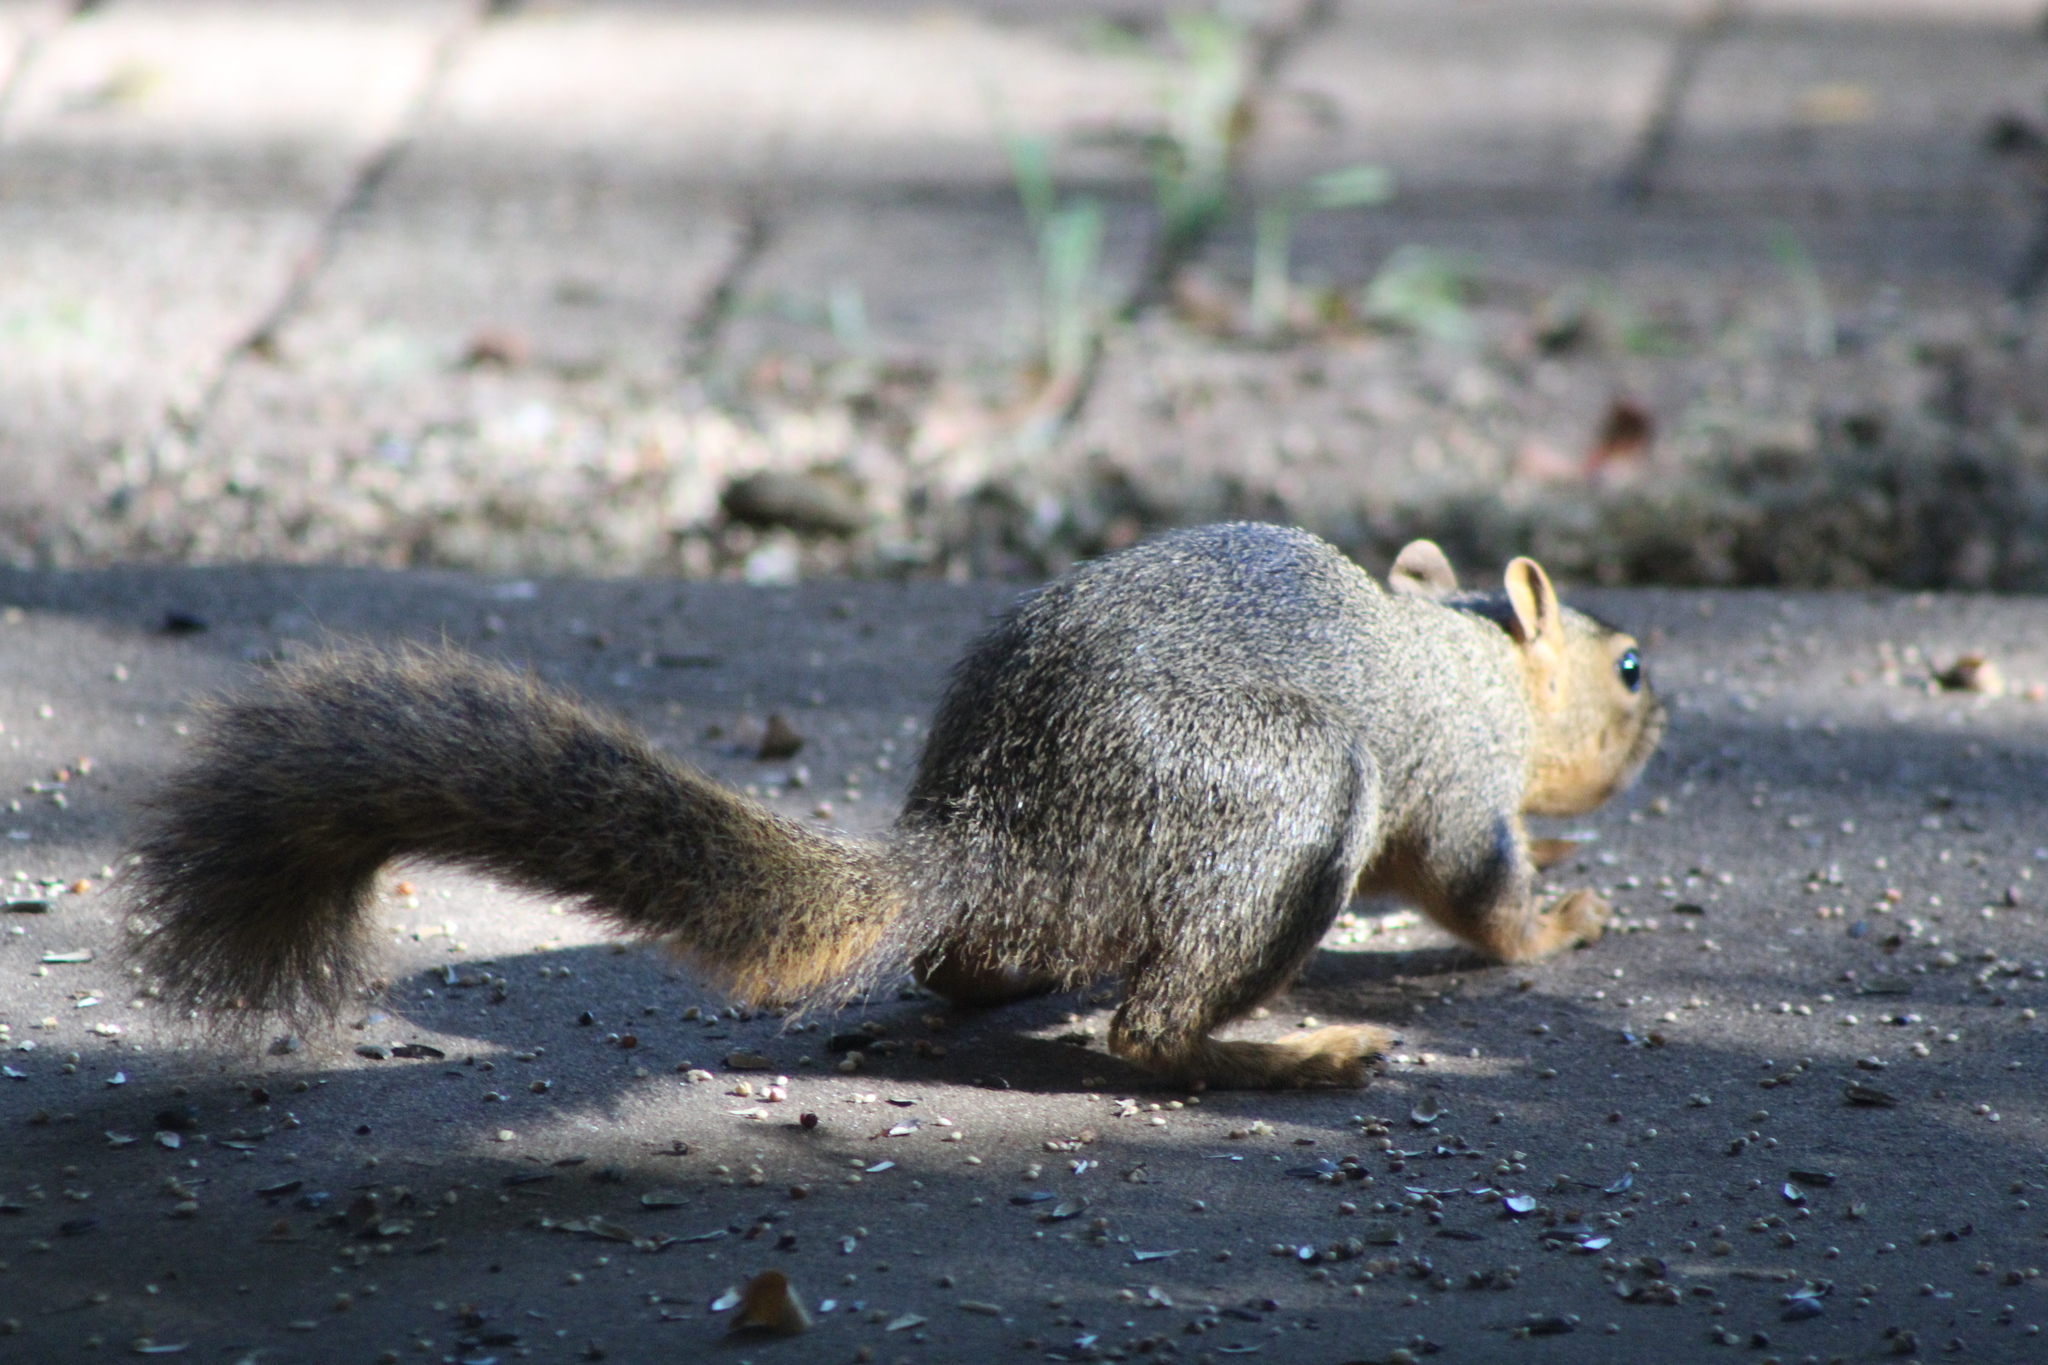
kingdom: Animalia
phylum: Chordata
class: Mammalia
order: Rodentia
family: Sciuridae
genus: Sciurus
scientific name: Sciurus niger
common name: Fox squirrel
